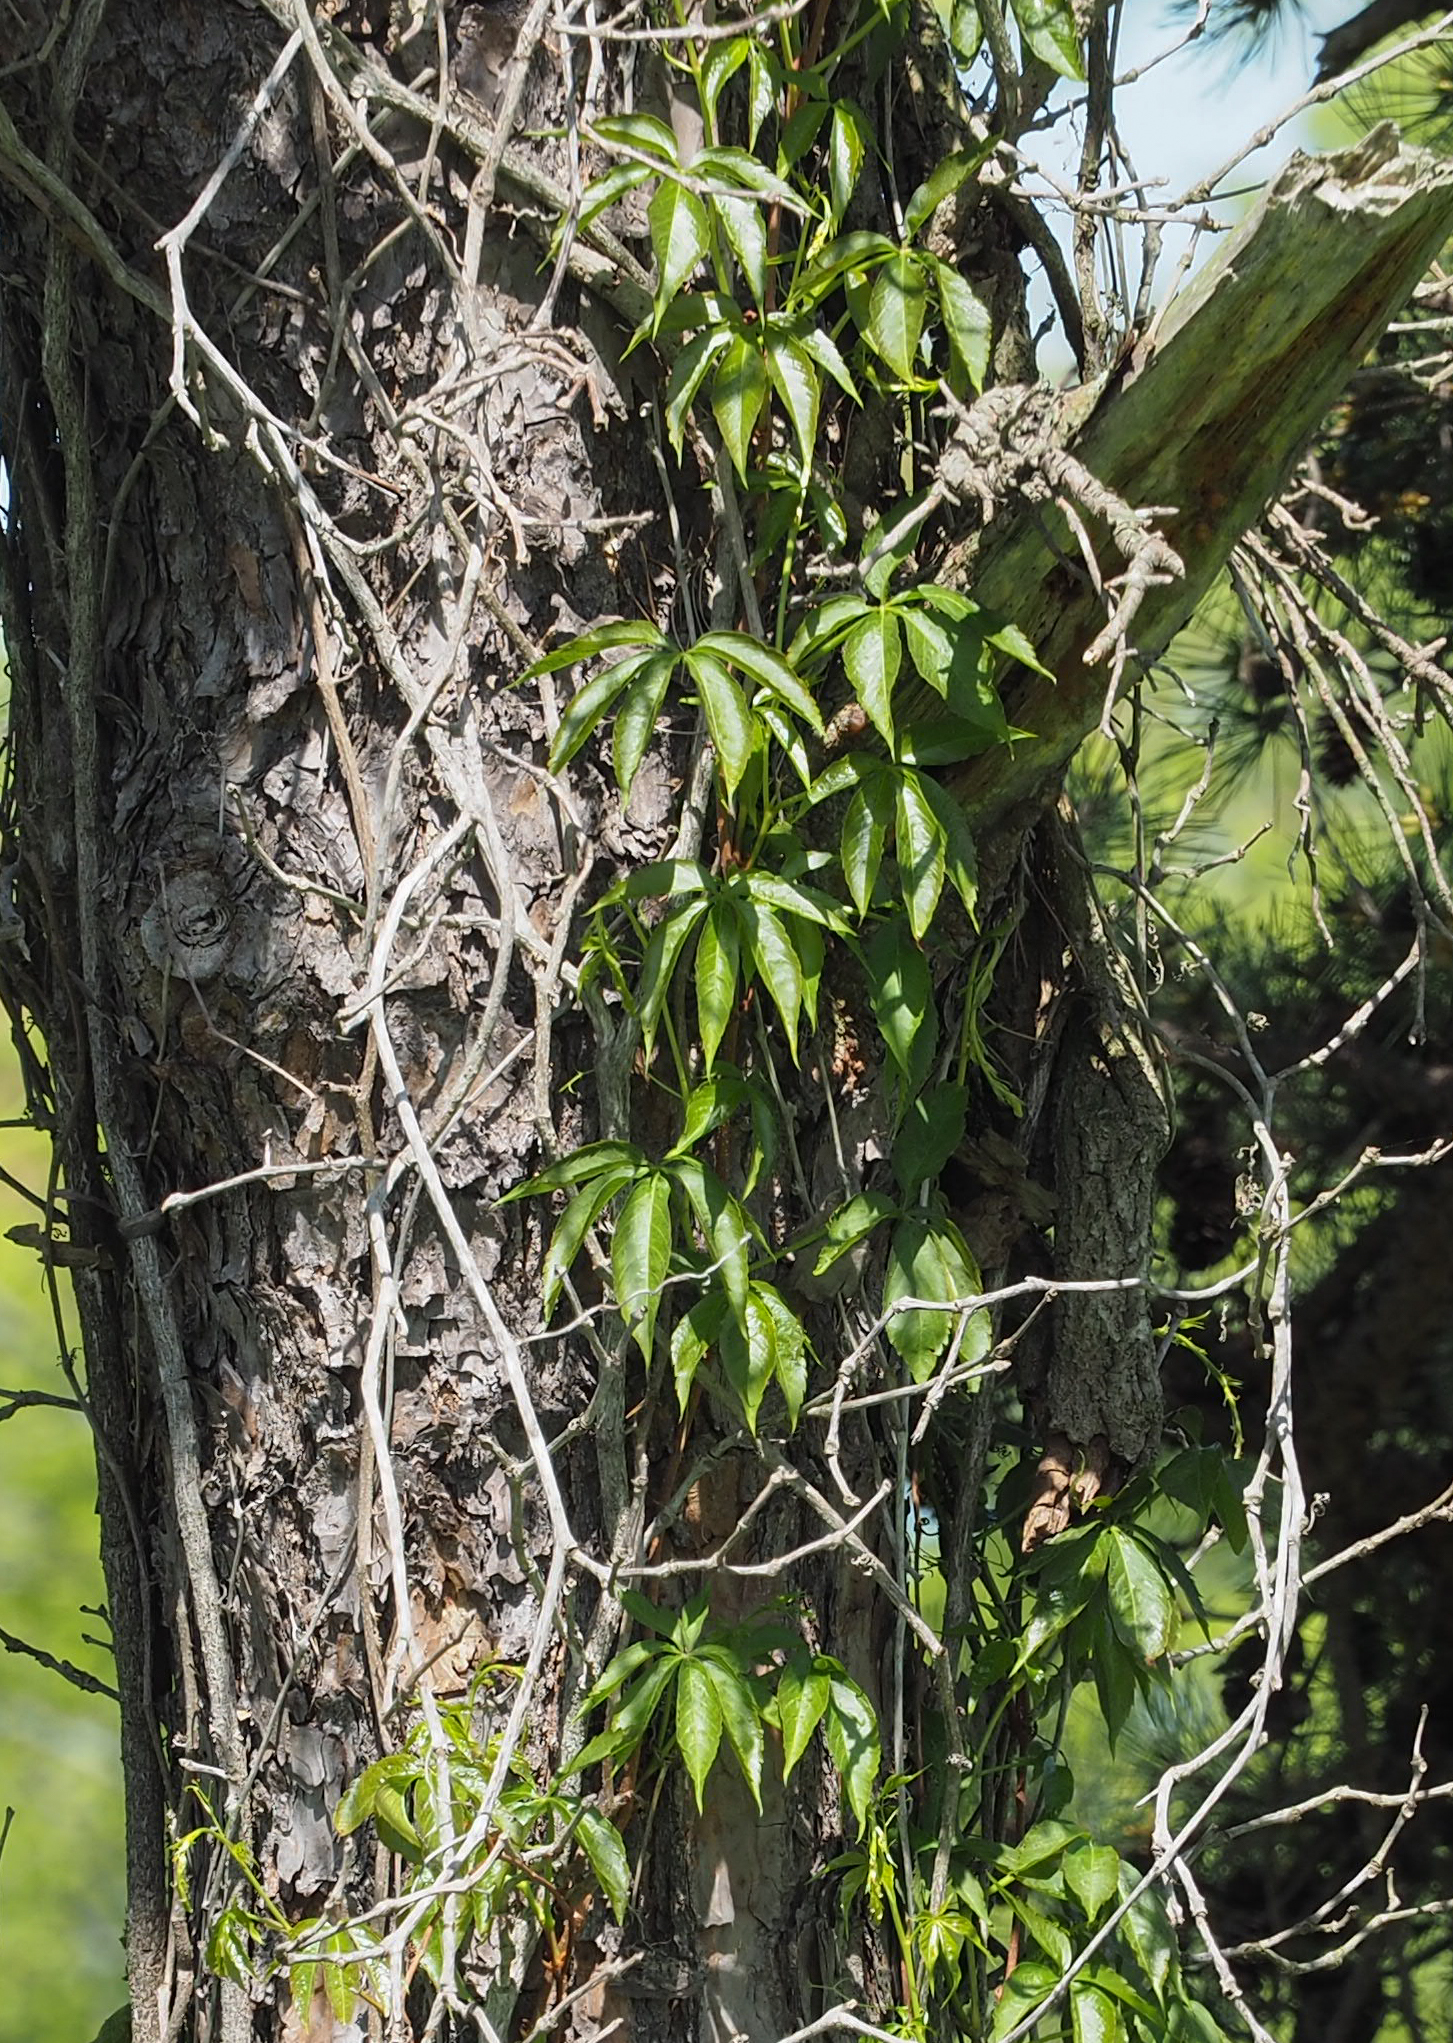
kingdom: Plantae
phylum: Tracheophyta
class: Magnoliopsida
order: Vitales
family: Vitaceae
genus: Parthenocissus
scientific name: Parthenocissus quinquefolia
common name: Virginia-creeper
